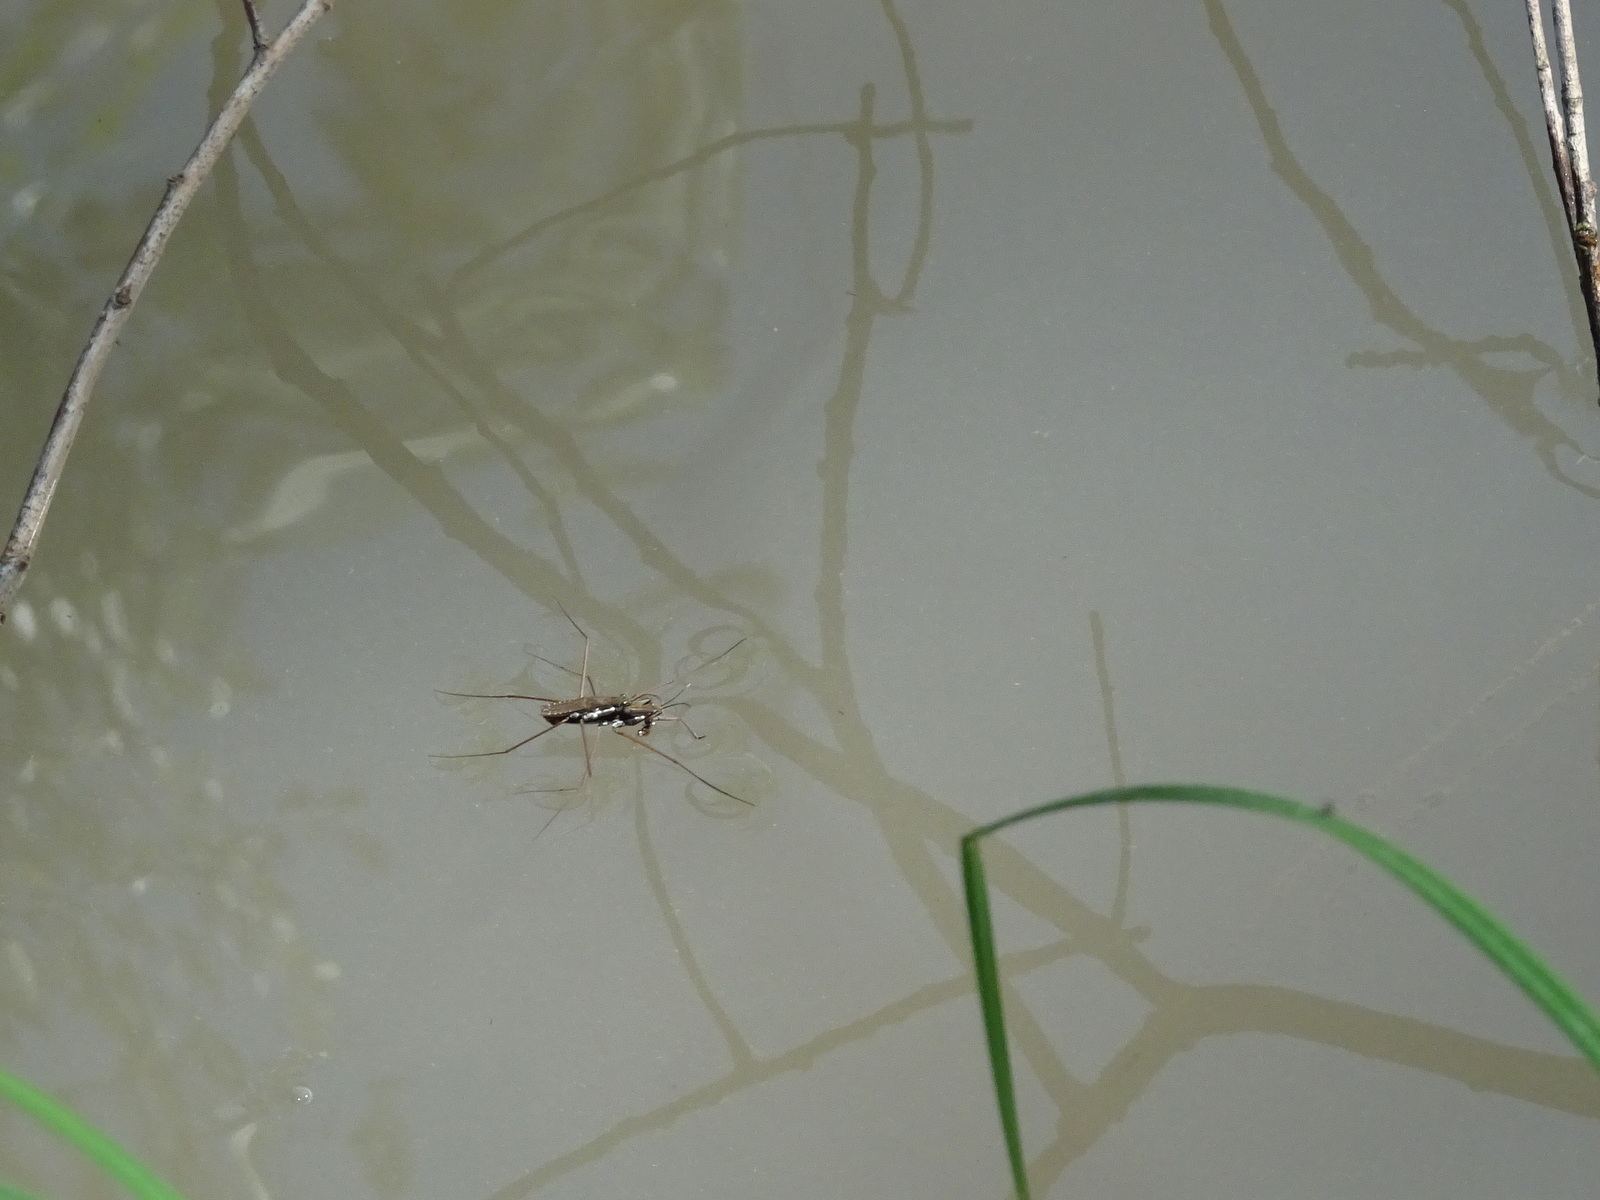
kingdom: Animalia
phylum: Arthropoda
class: Insecta
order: Hemiptera
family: Gerridae
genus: Aquarius
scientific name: Aquarius remigis
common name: Common water strider
